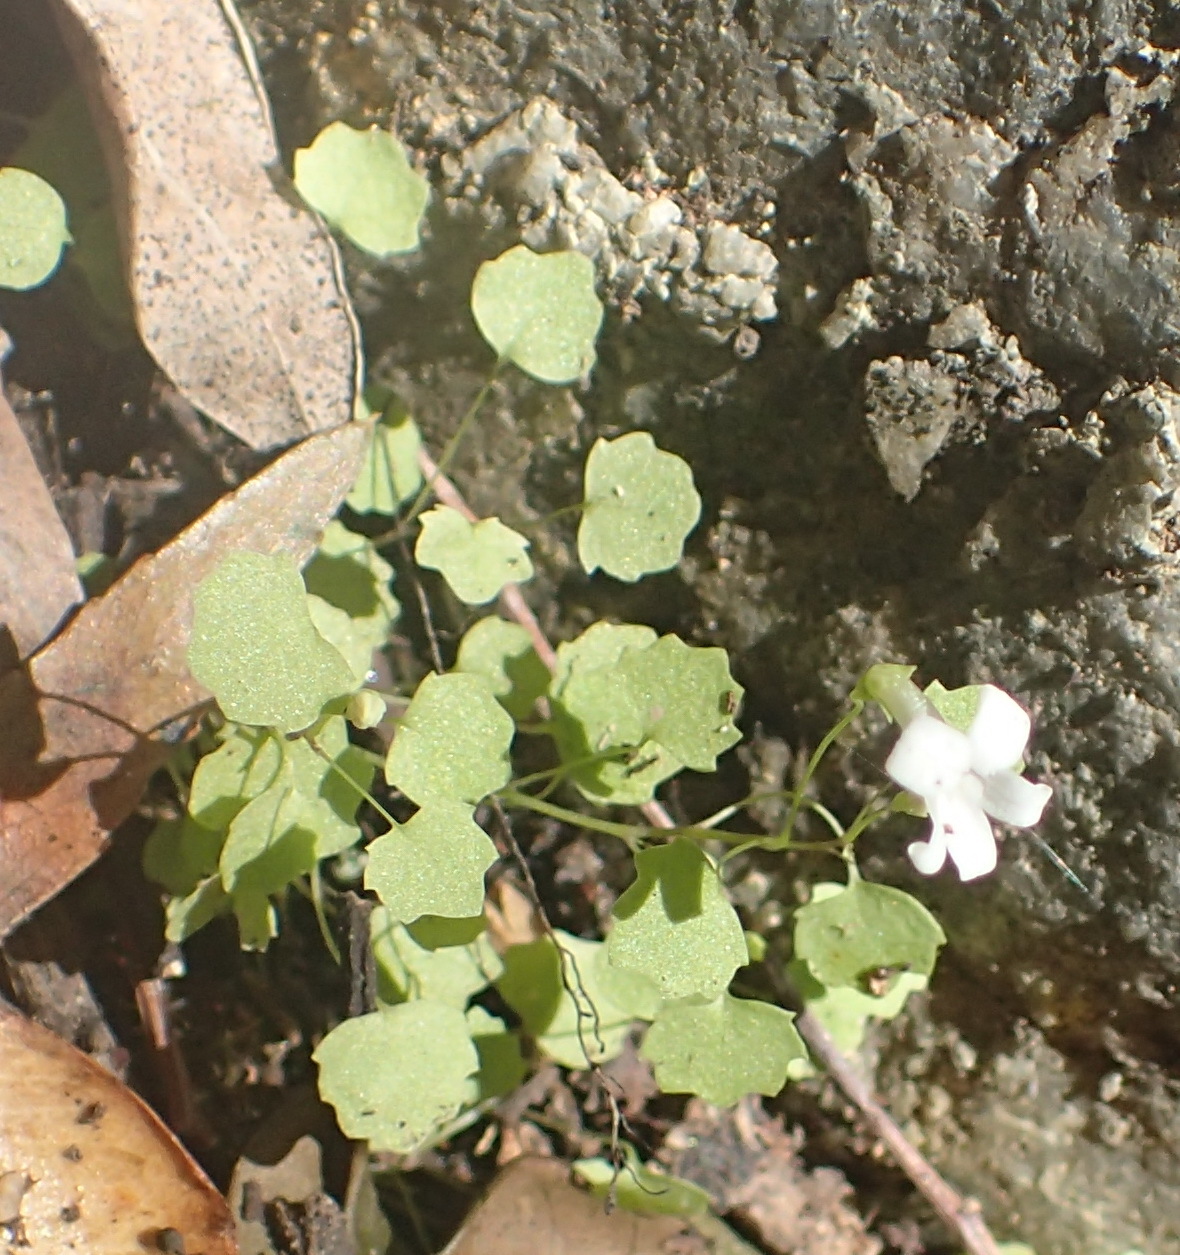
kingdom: Plantae
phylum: Tracheophyta
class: Magnoliopsida
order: Asterales
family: Campanulaceae
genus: Wimmerella
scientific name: Wimmerella pygmaea
